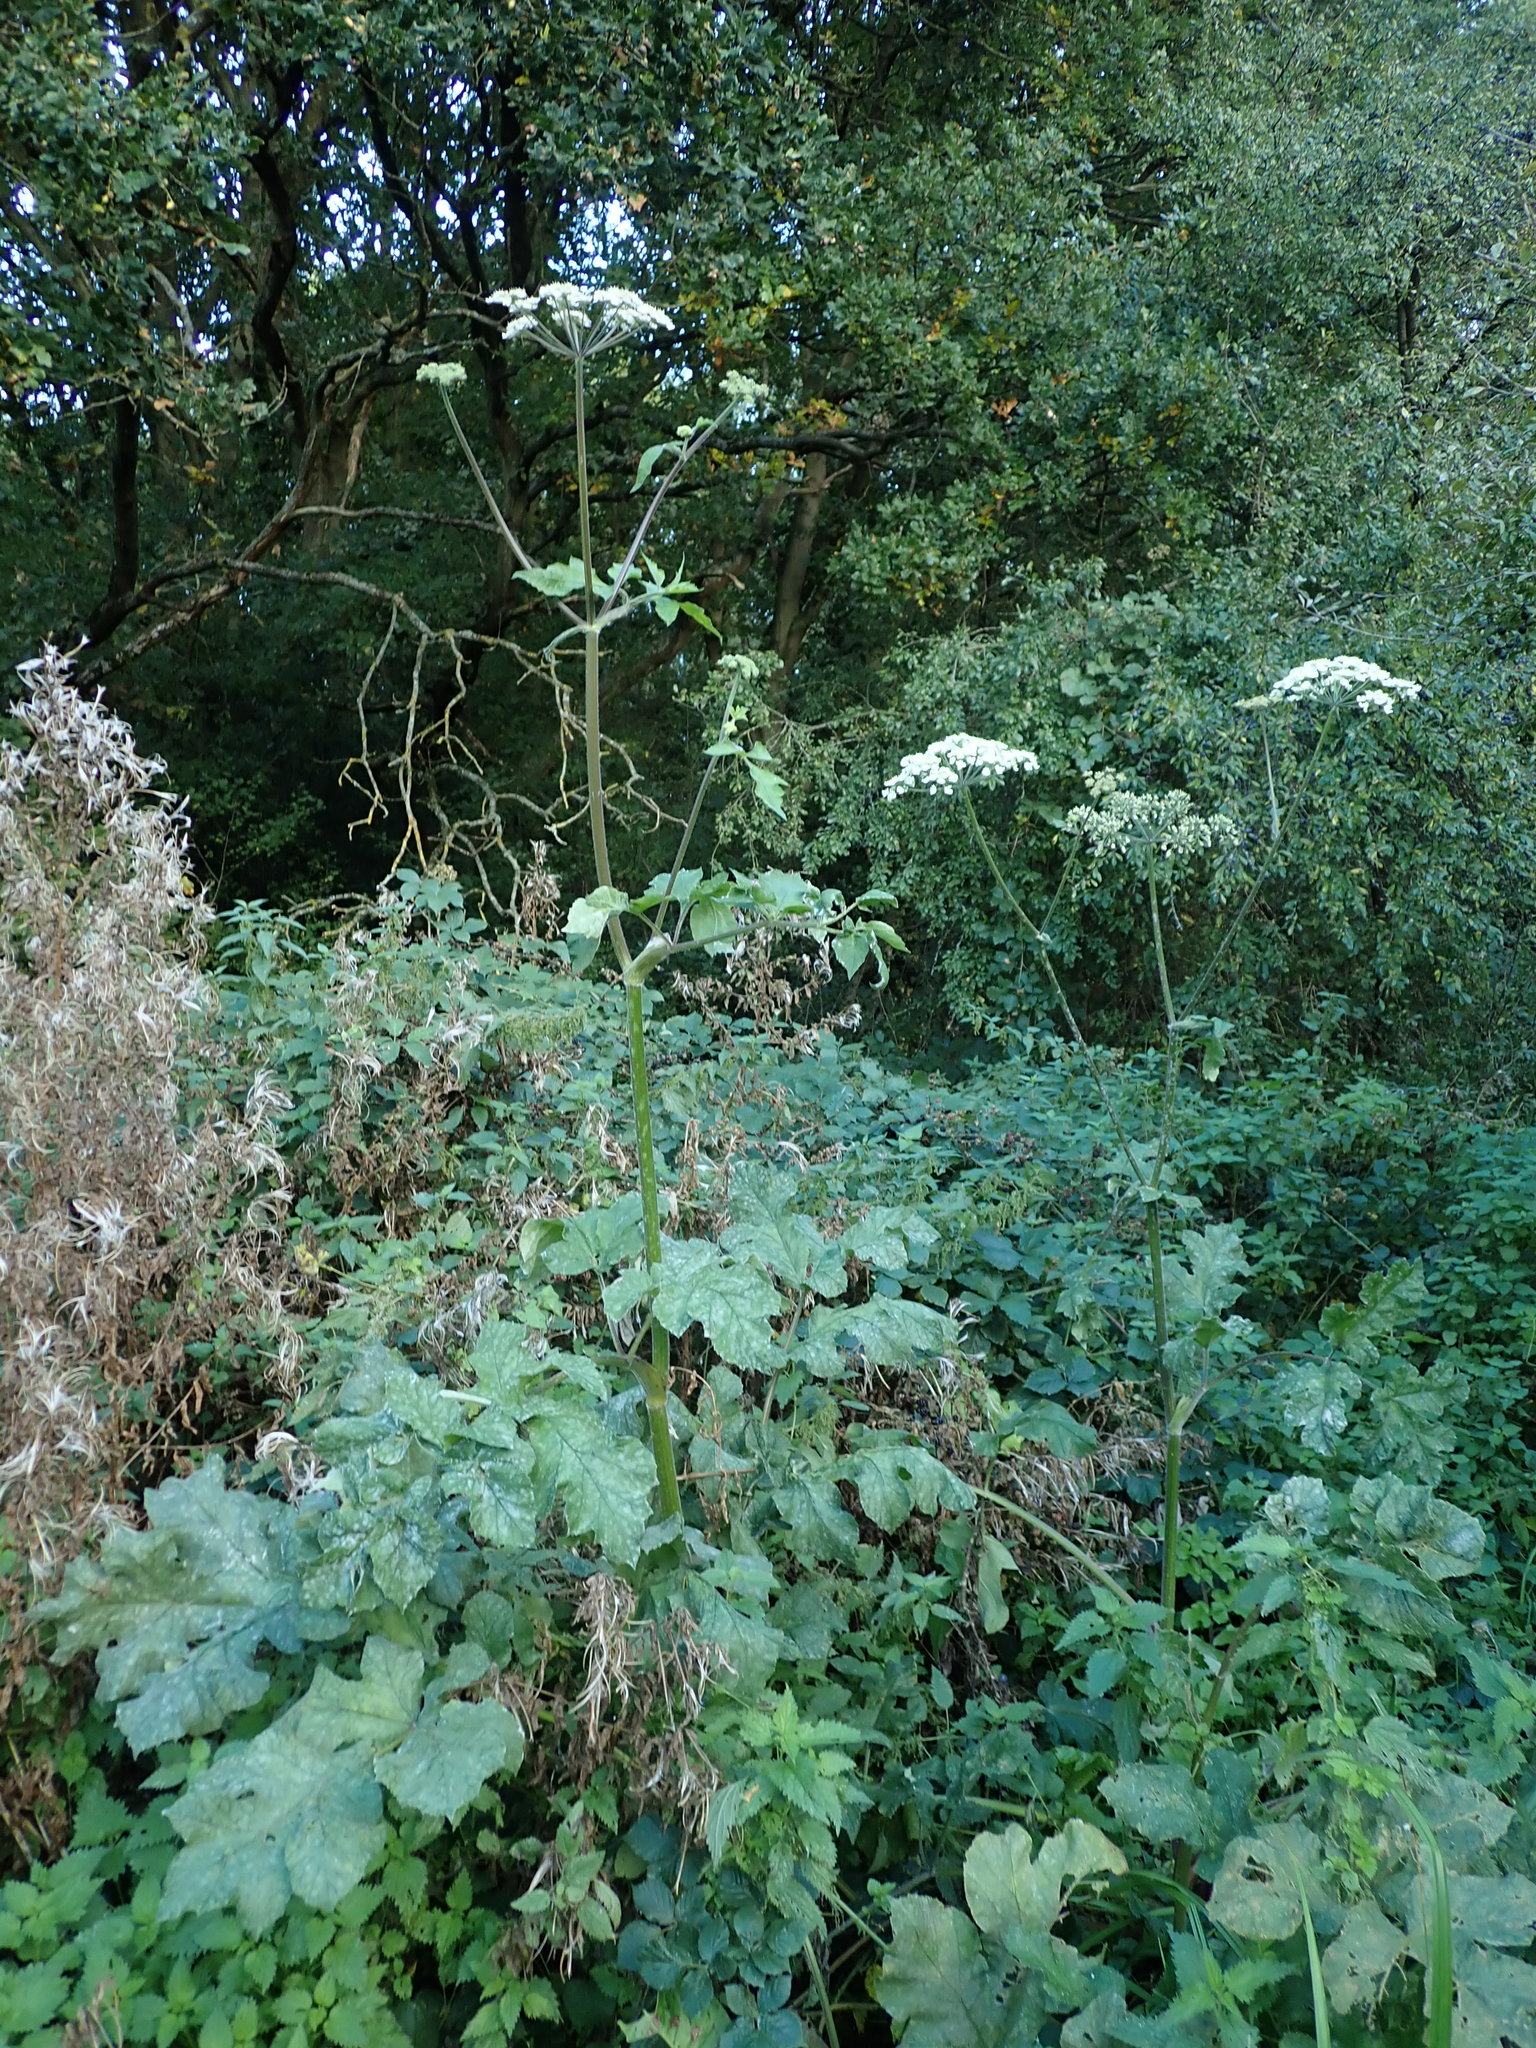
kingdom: Plantae
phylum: Tracheophyta
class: Magnoliopsida
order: Apiales
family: Apiaceae
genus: Heracleum
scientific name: Heracleum sphondylium
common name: Hogweed
